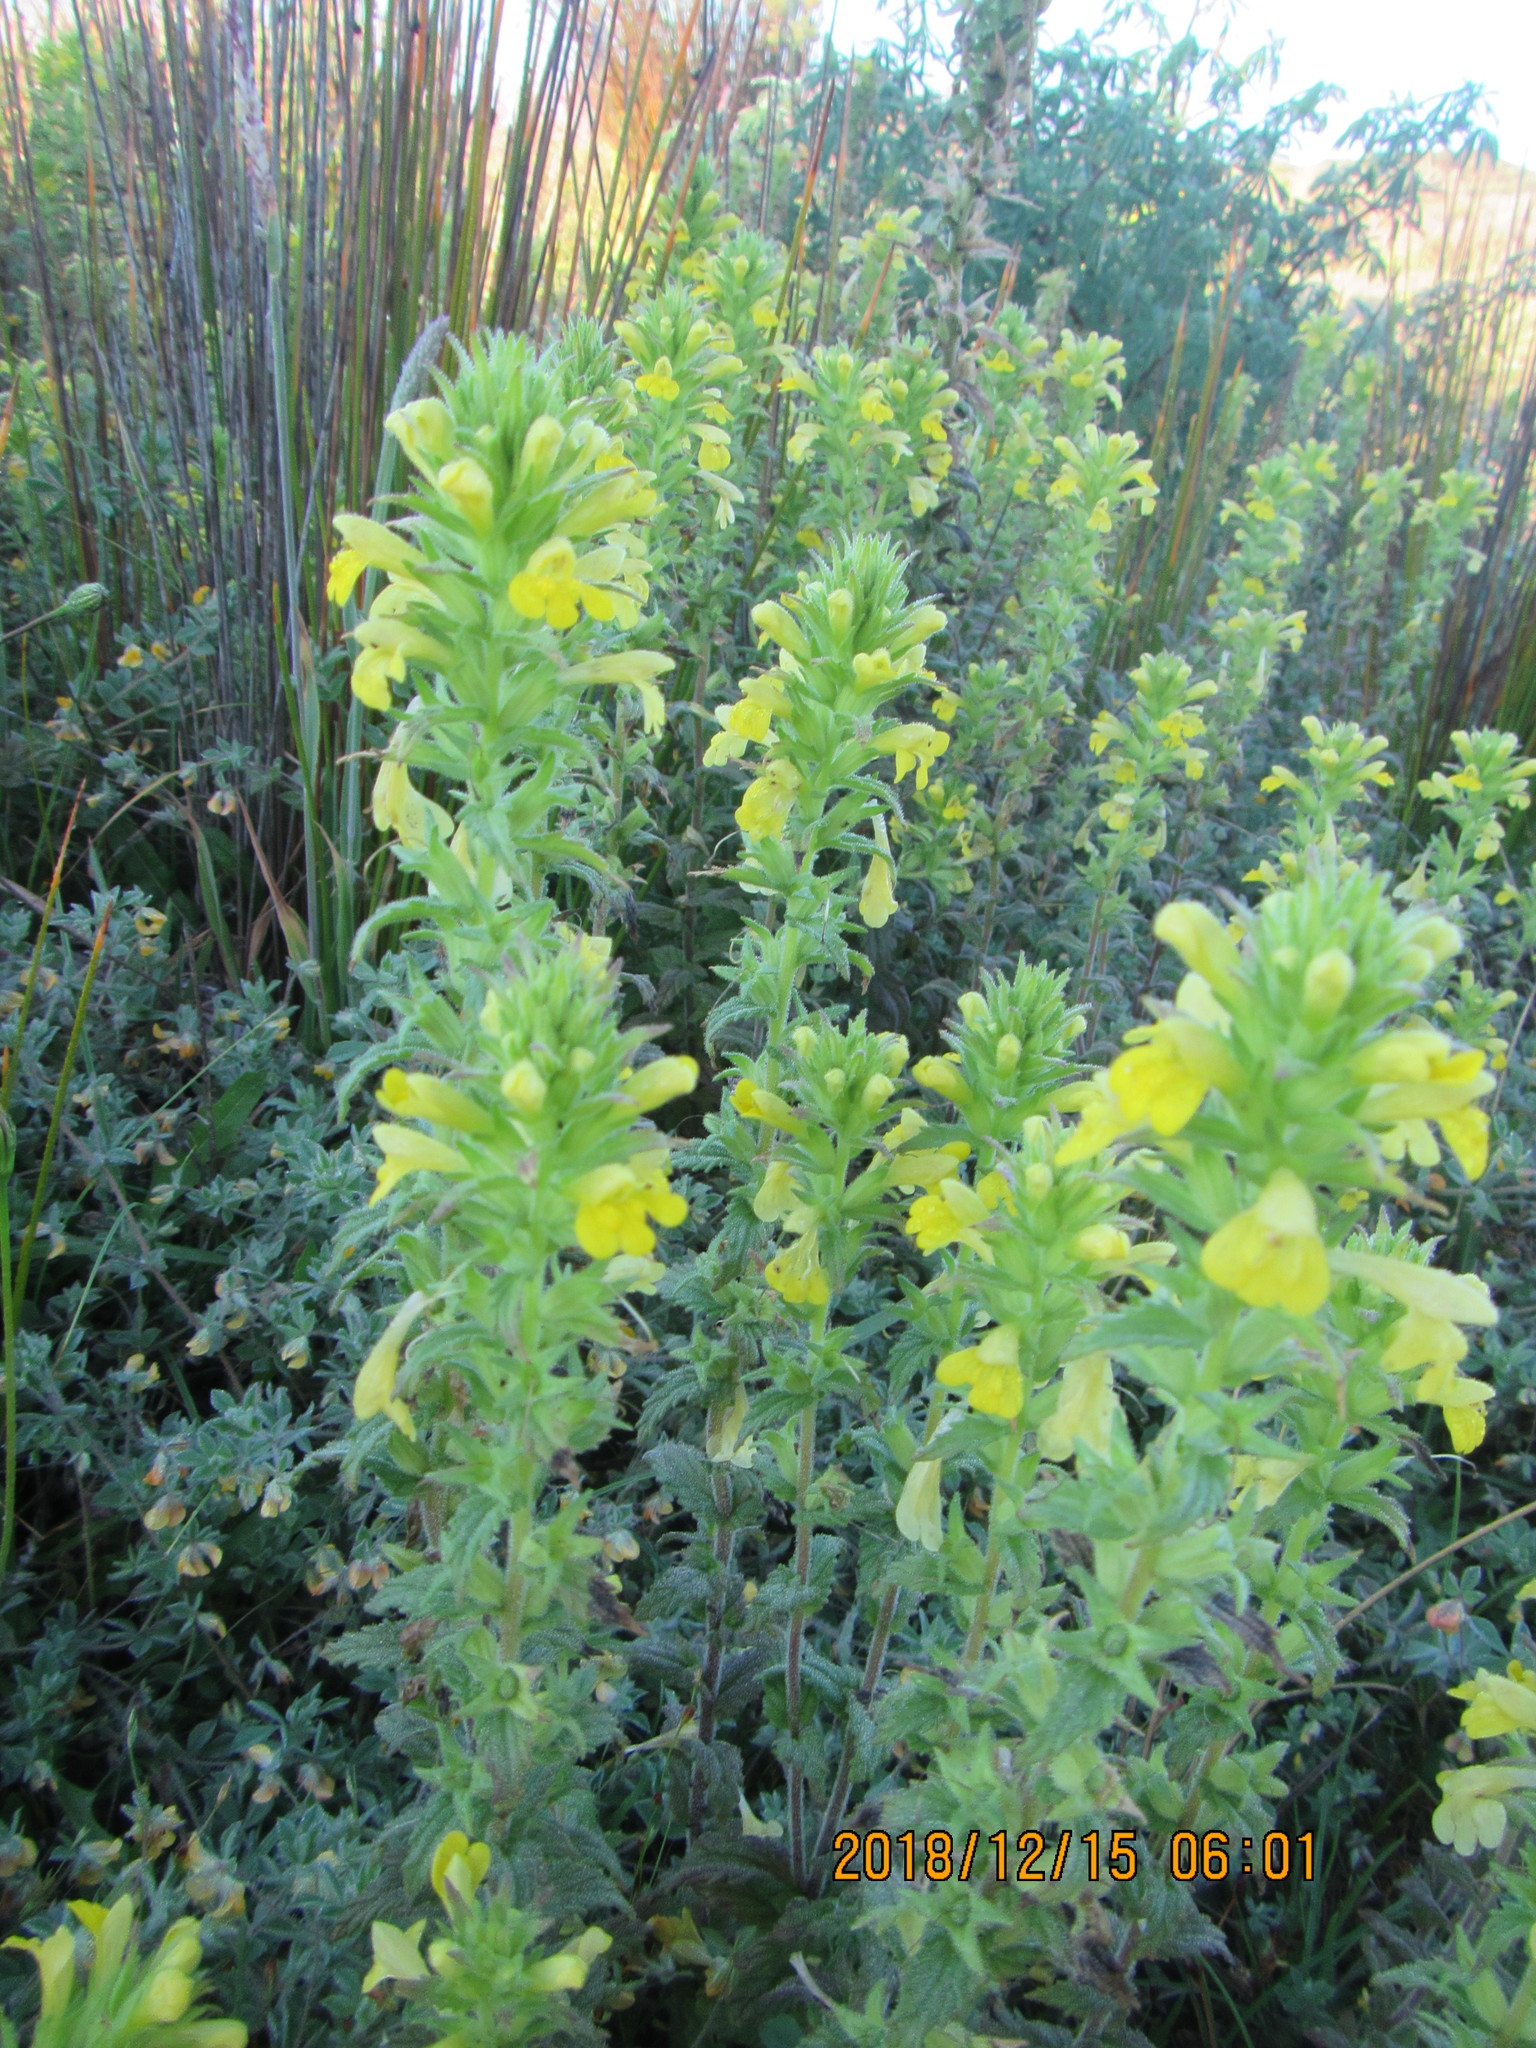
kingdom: Plantae
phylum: Tracheophyta
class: Magnoliopsida
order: Lamiales
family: Orobanchaceae
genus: Bellardia
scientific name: Bellardia viscosa
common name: Sticky parentucellia
